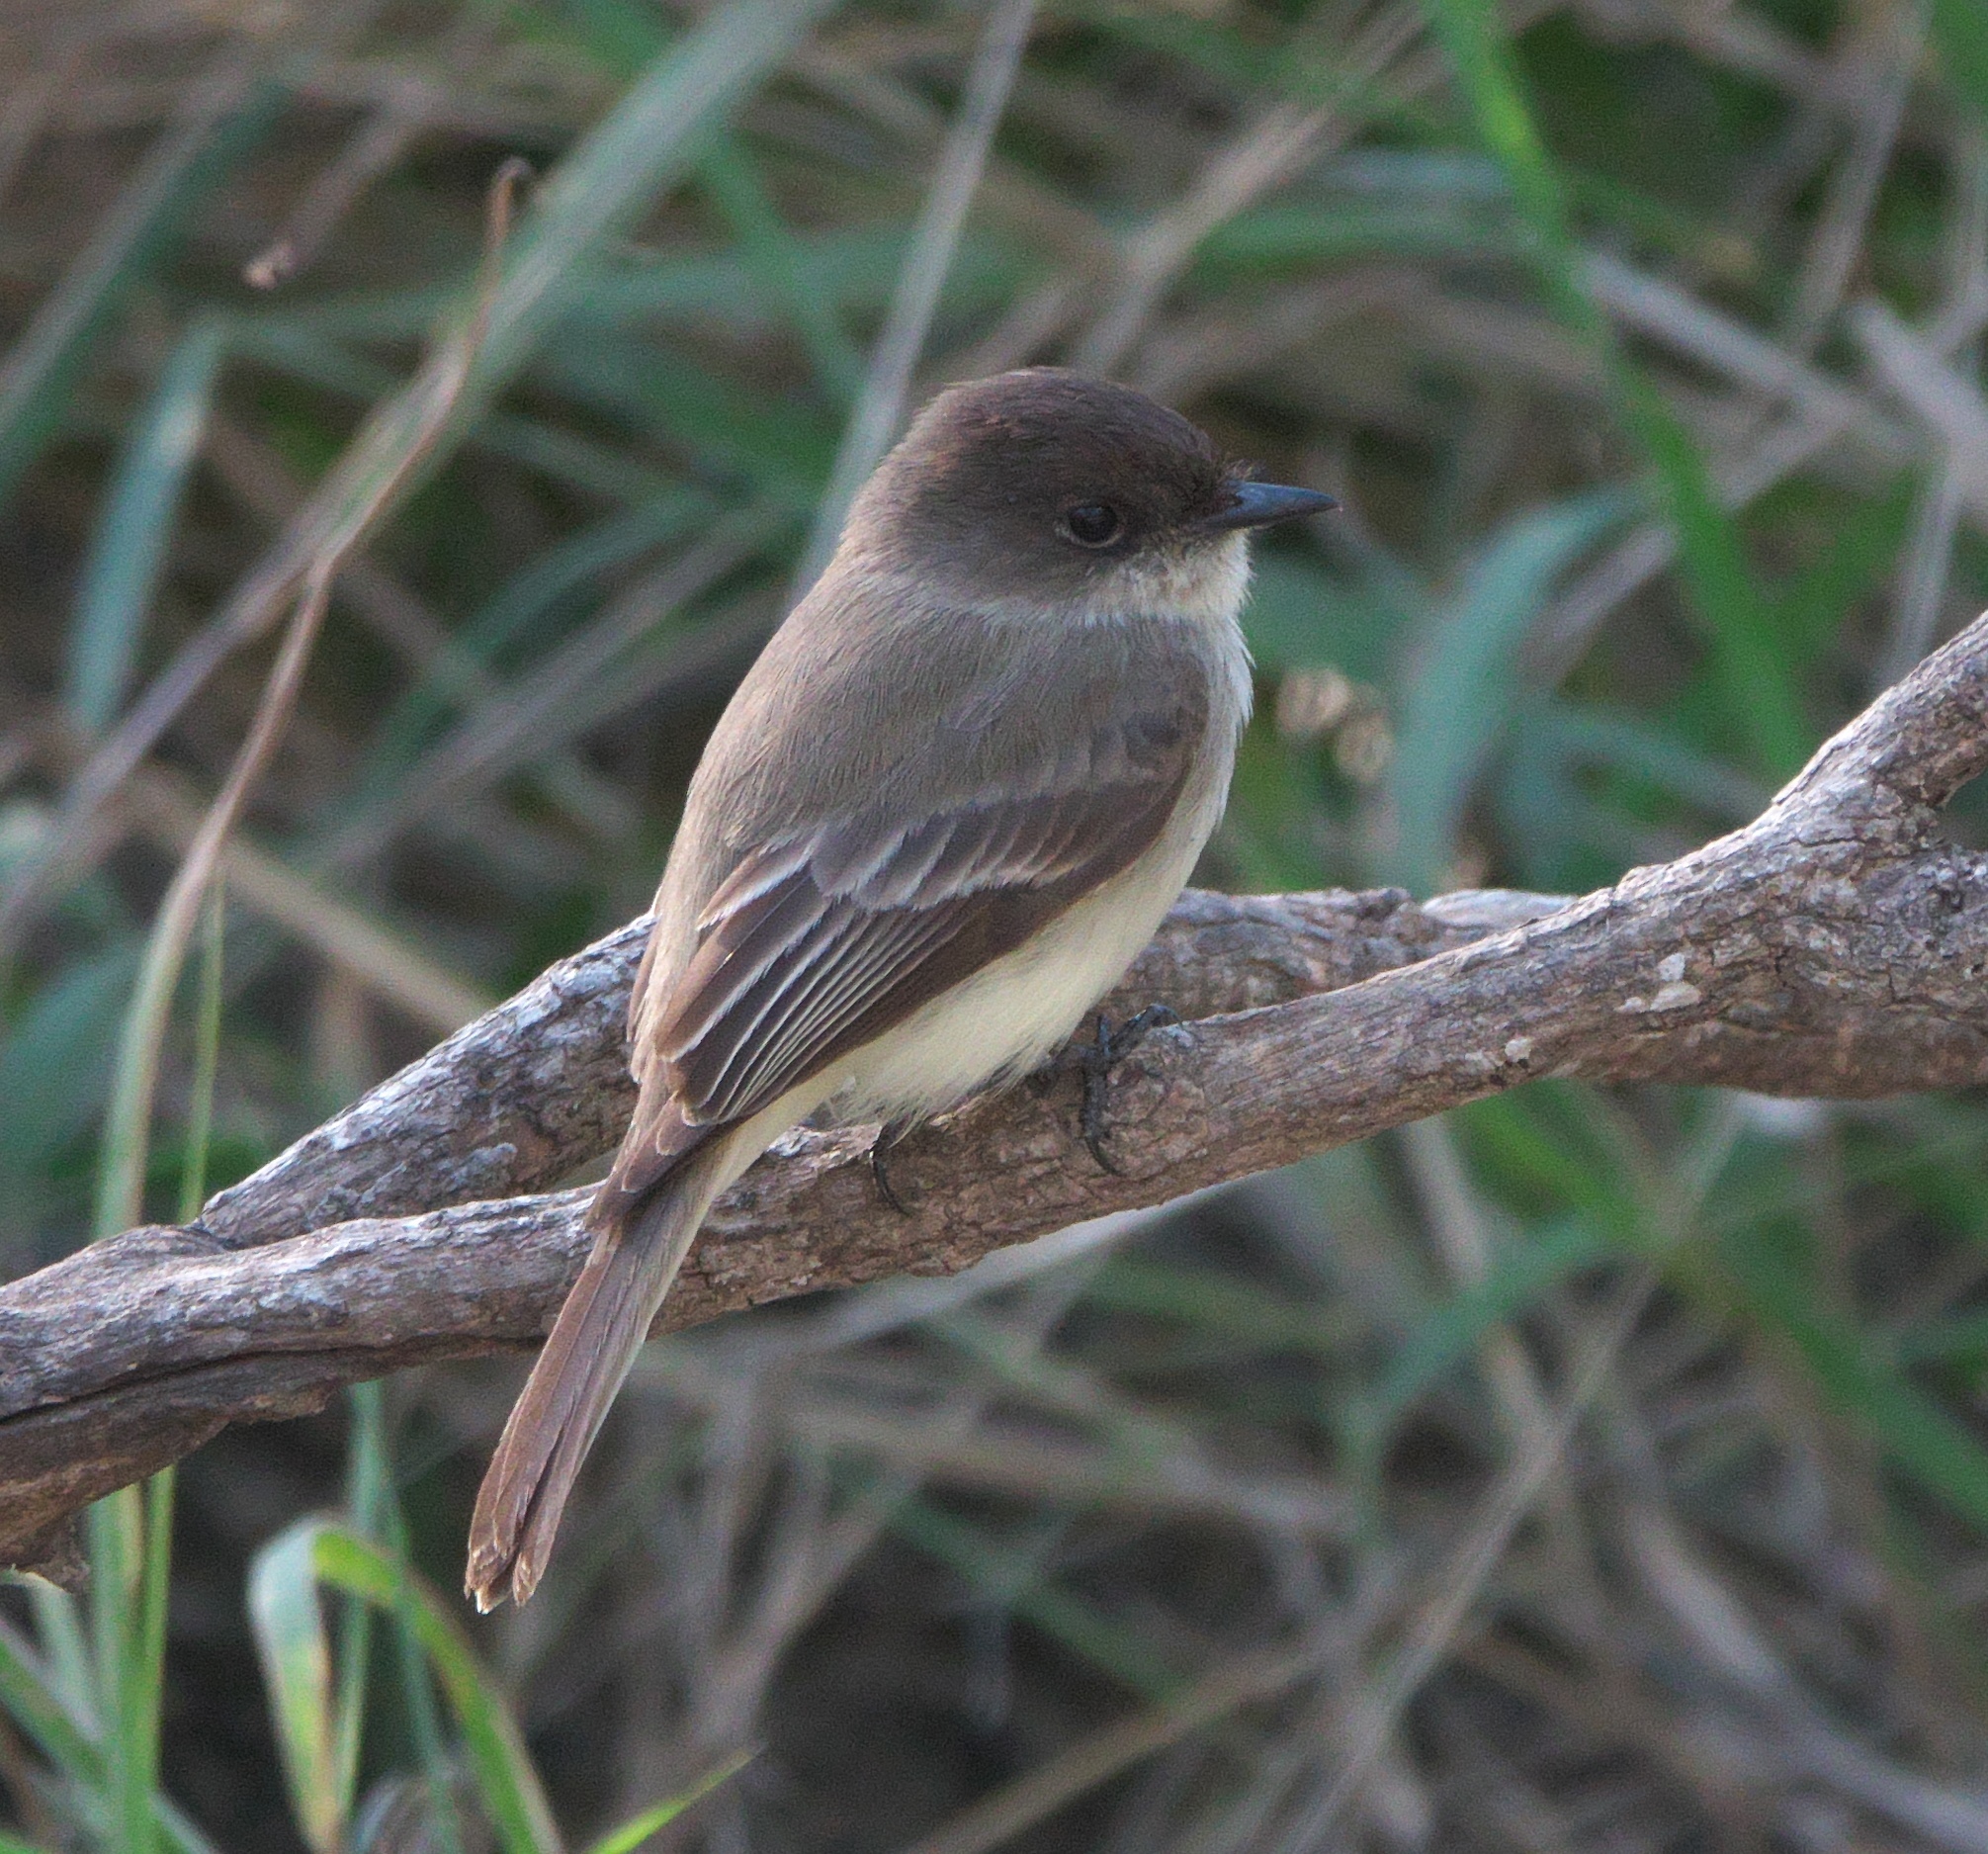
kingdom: Animalia
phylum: Chordata
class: Aves
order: Passeriformes
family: Tyrannidae
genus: Sayornis
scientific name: Sayornis phoebe
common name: Eastern phoebe
